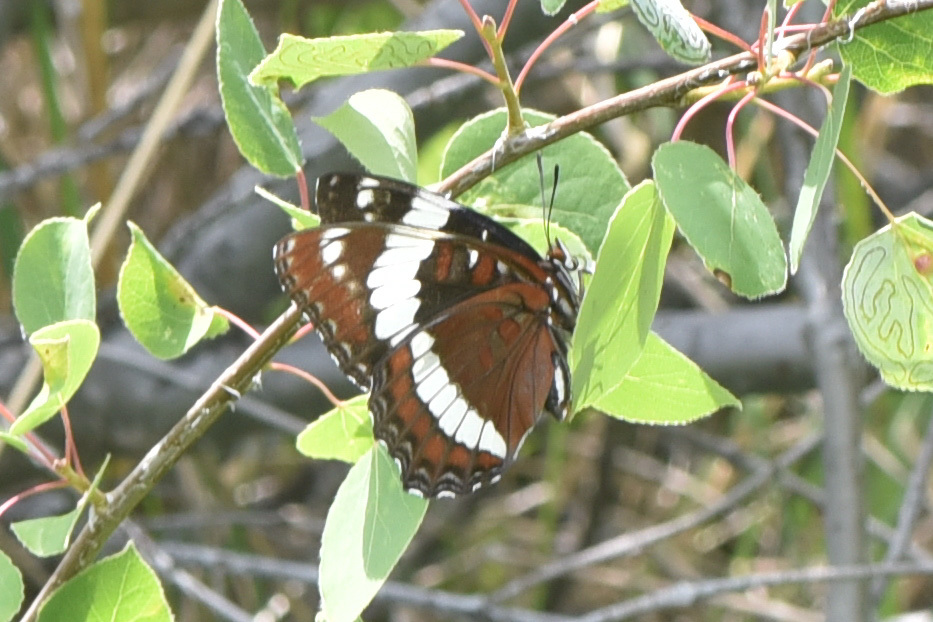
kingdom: Animalia
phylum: Arthropoda
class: Insecta
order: Lepidoptera
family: Nymphalidae
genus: Limenitis
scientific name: Limenitis arthemis
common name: Red-spotted admiral
